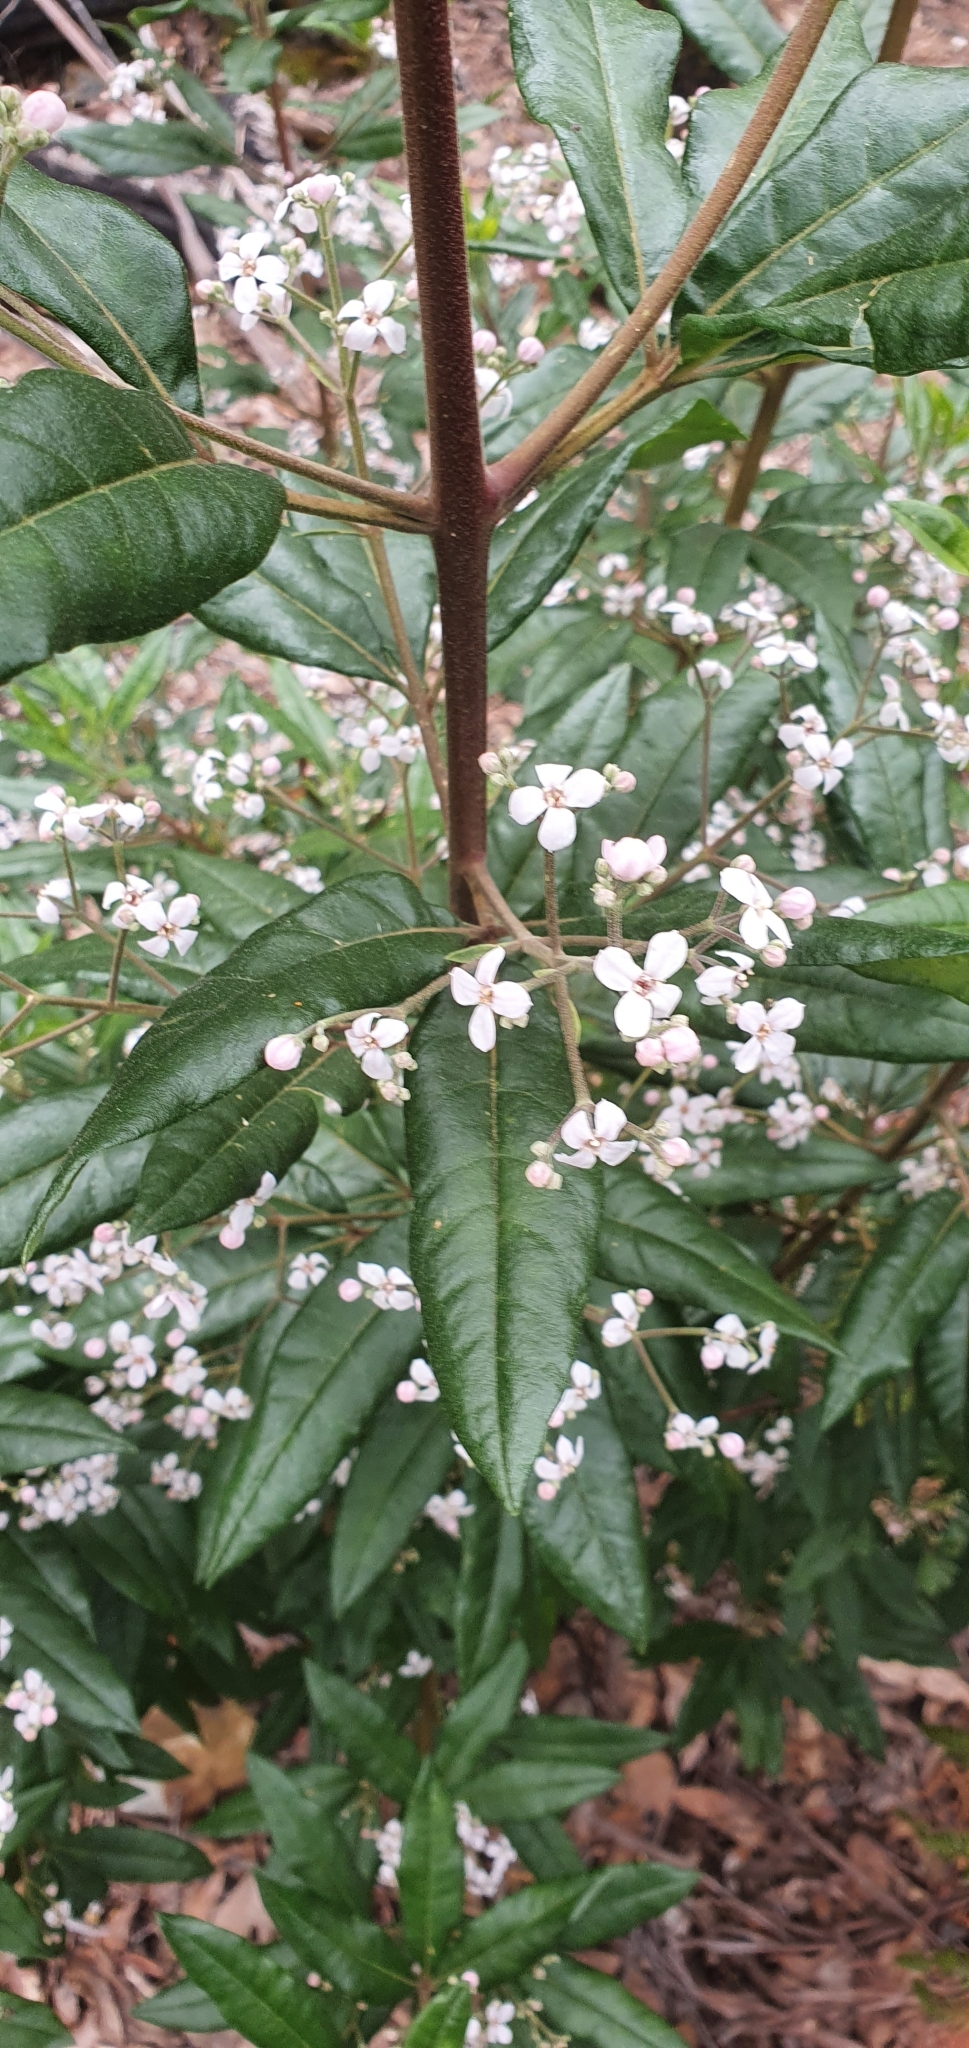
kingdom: Plantae
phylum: Tracheophyta
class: Magnoliopsida
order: Sapindales
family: Rutaceae
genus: Zieria
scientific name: Zieria arborescens
